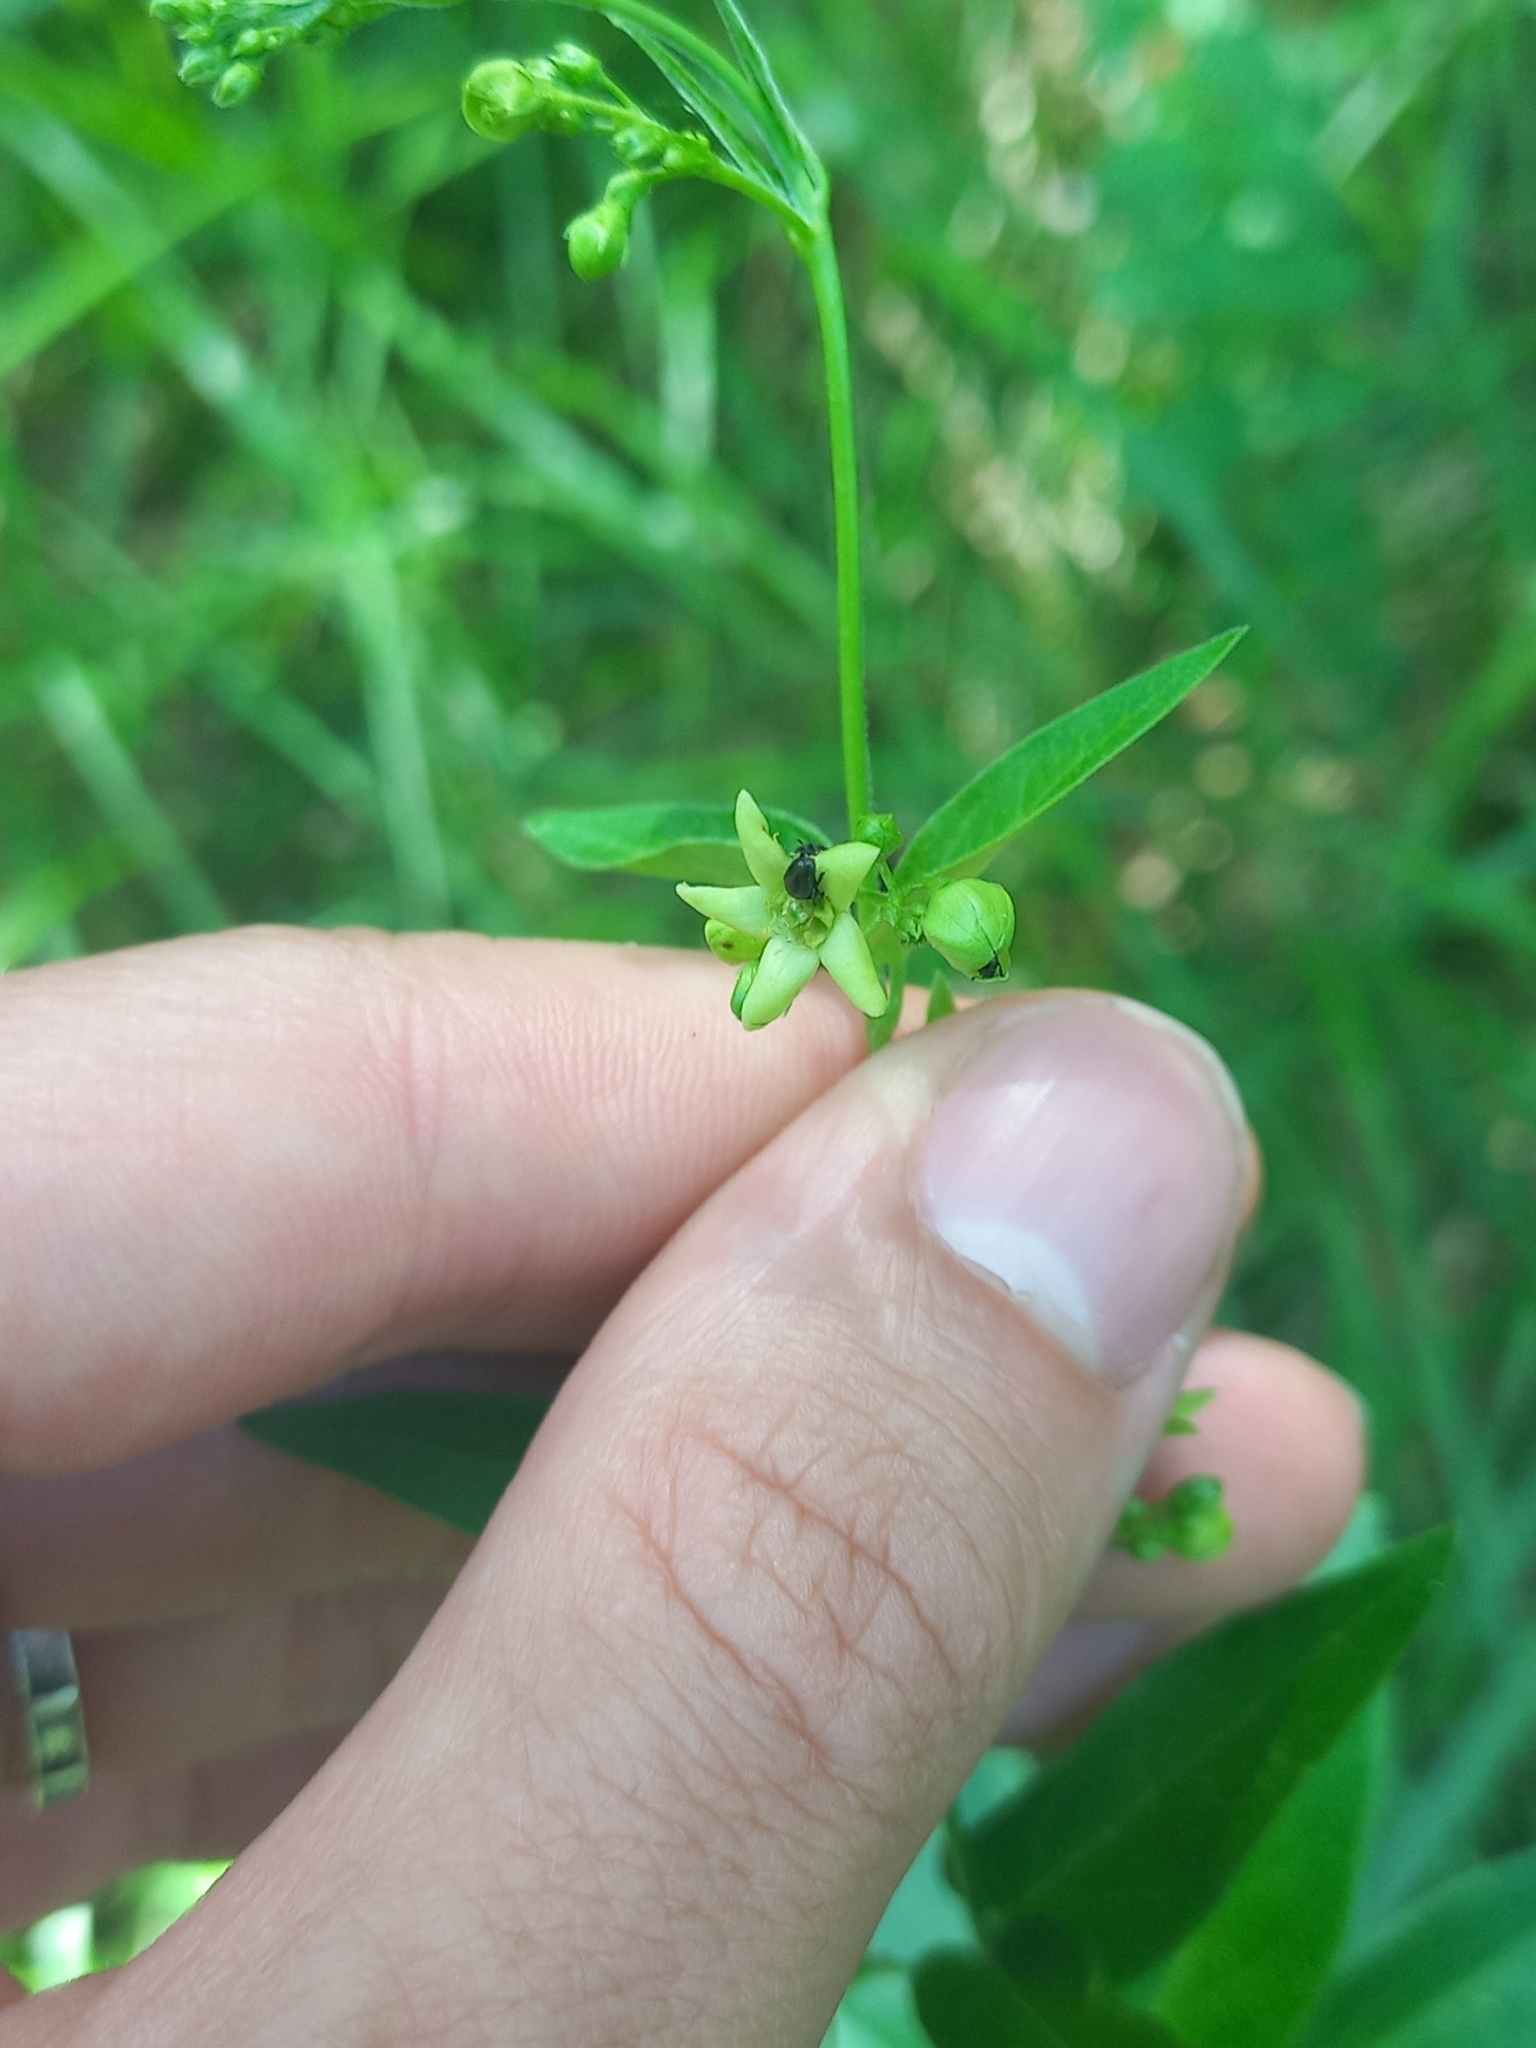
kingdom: Plantae
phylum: Tracheophyta
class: Magnoliopsida
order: Gentianales
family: Apocynaceae
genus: Vincetoxicum
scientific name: Vincetoxicum hirundinaria
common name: White swallowwort
